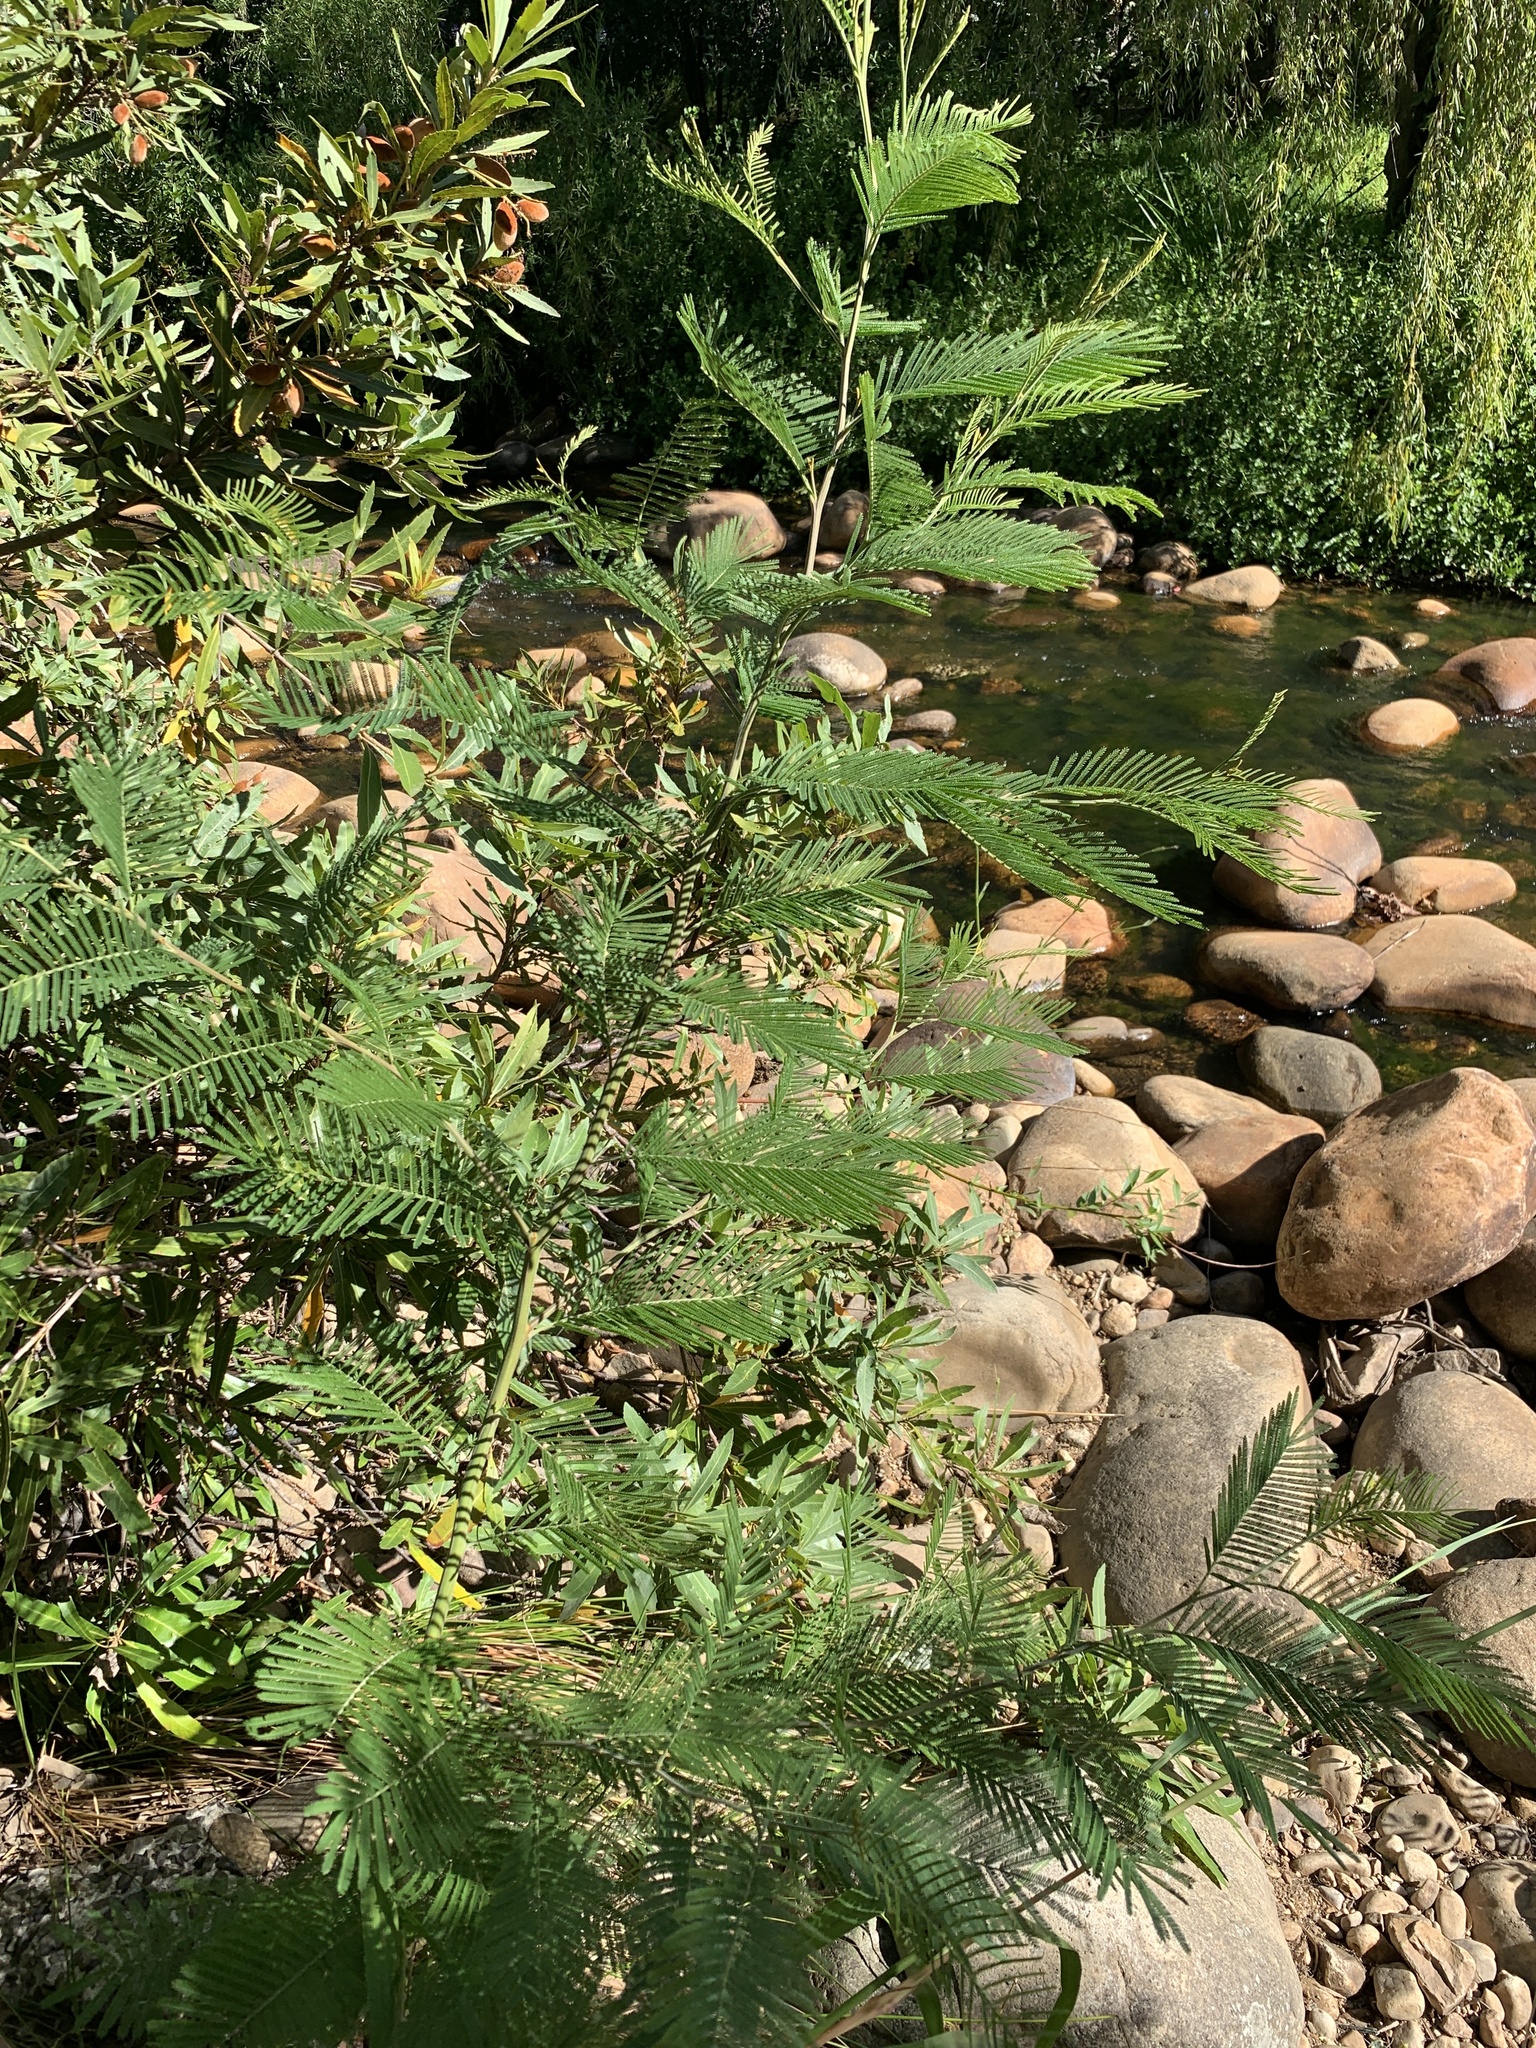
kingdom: Plantae
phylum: Tracheophyta
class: Magnoliopsida
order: Fabales
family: Fabaceae
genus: Acacia
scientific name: Acacia mearnsii
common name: Black wattle
